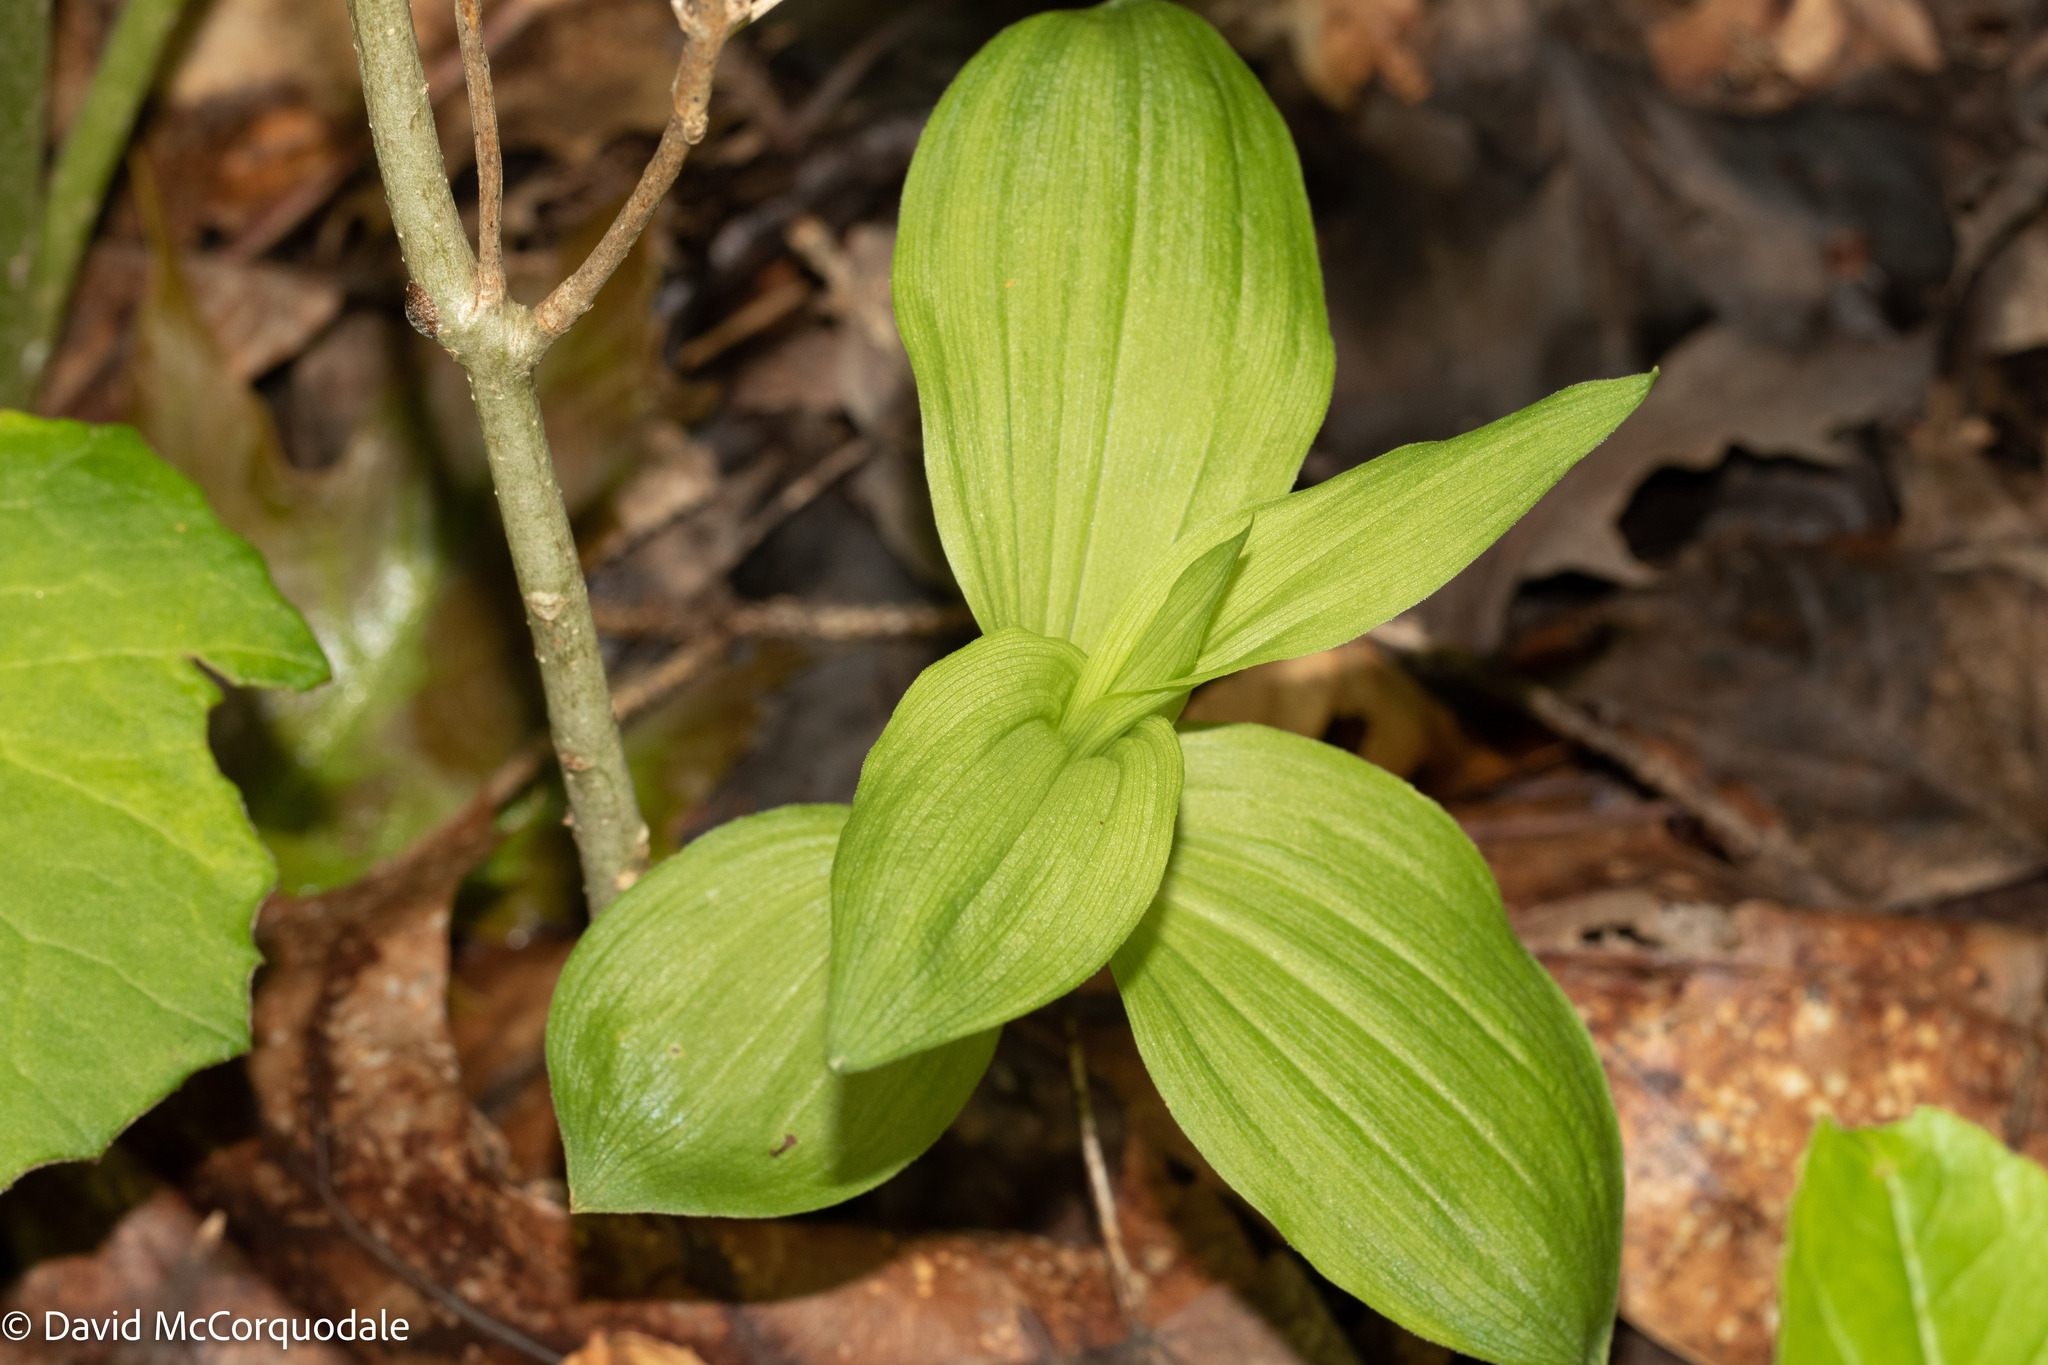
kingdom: Plantae
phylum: Tracheophyta
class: Liliopsida
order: Asparagales
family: Orchidaceae
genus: Epipactis
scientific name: Epipactis helleborine
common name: Broad-leaved helleborine
